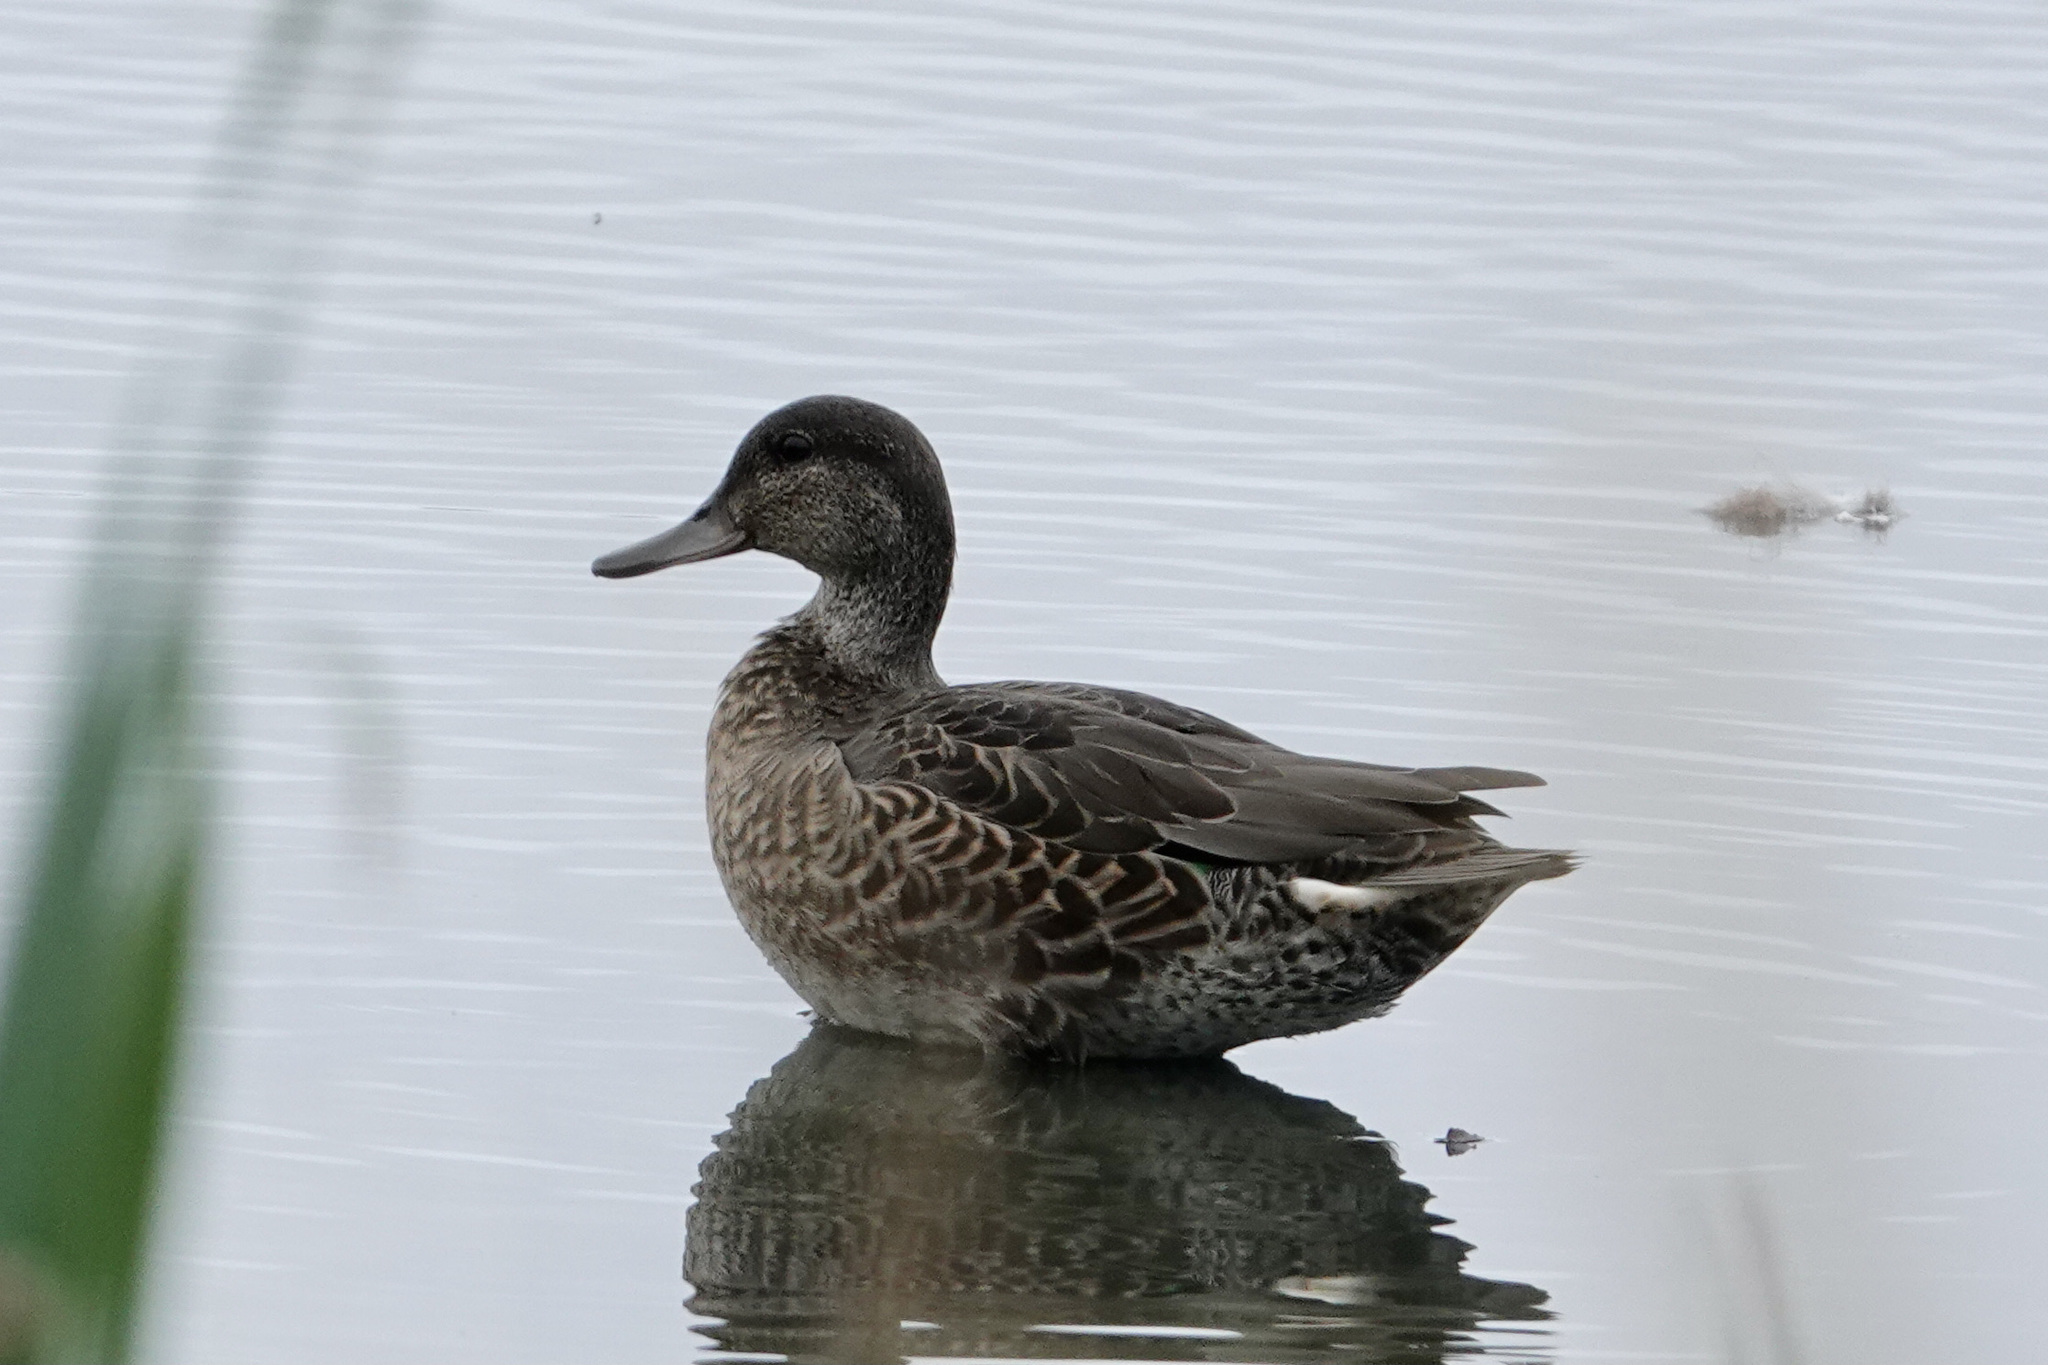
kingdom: Animalia
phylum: Chordata
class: Aves
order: Anseriformes
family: Anatidae
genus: Anas
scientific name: Anas crecca
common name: Eurasian teal
